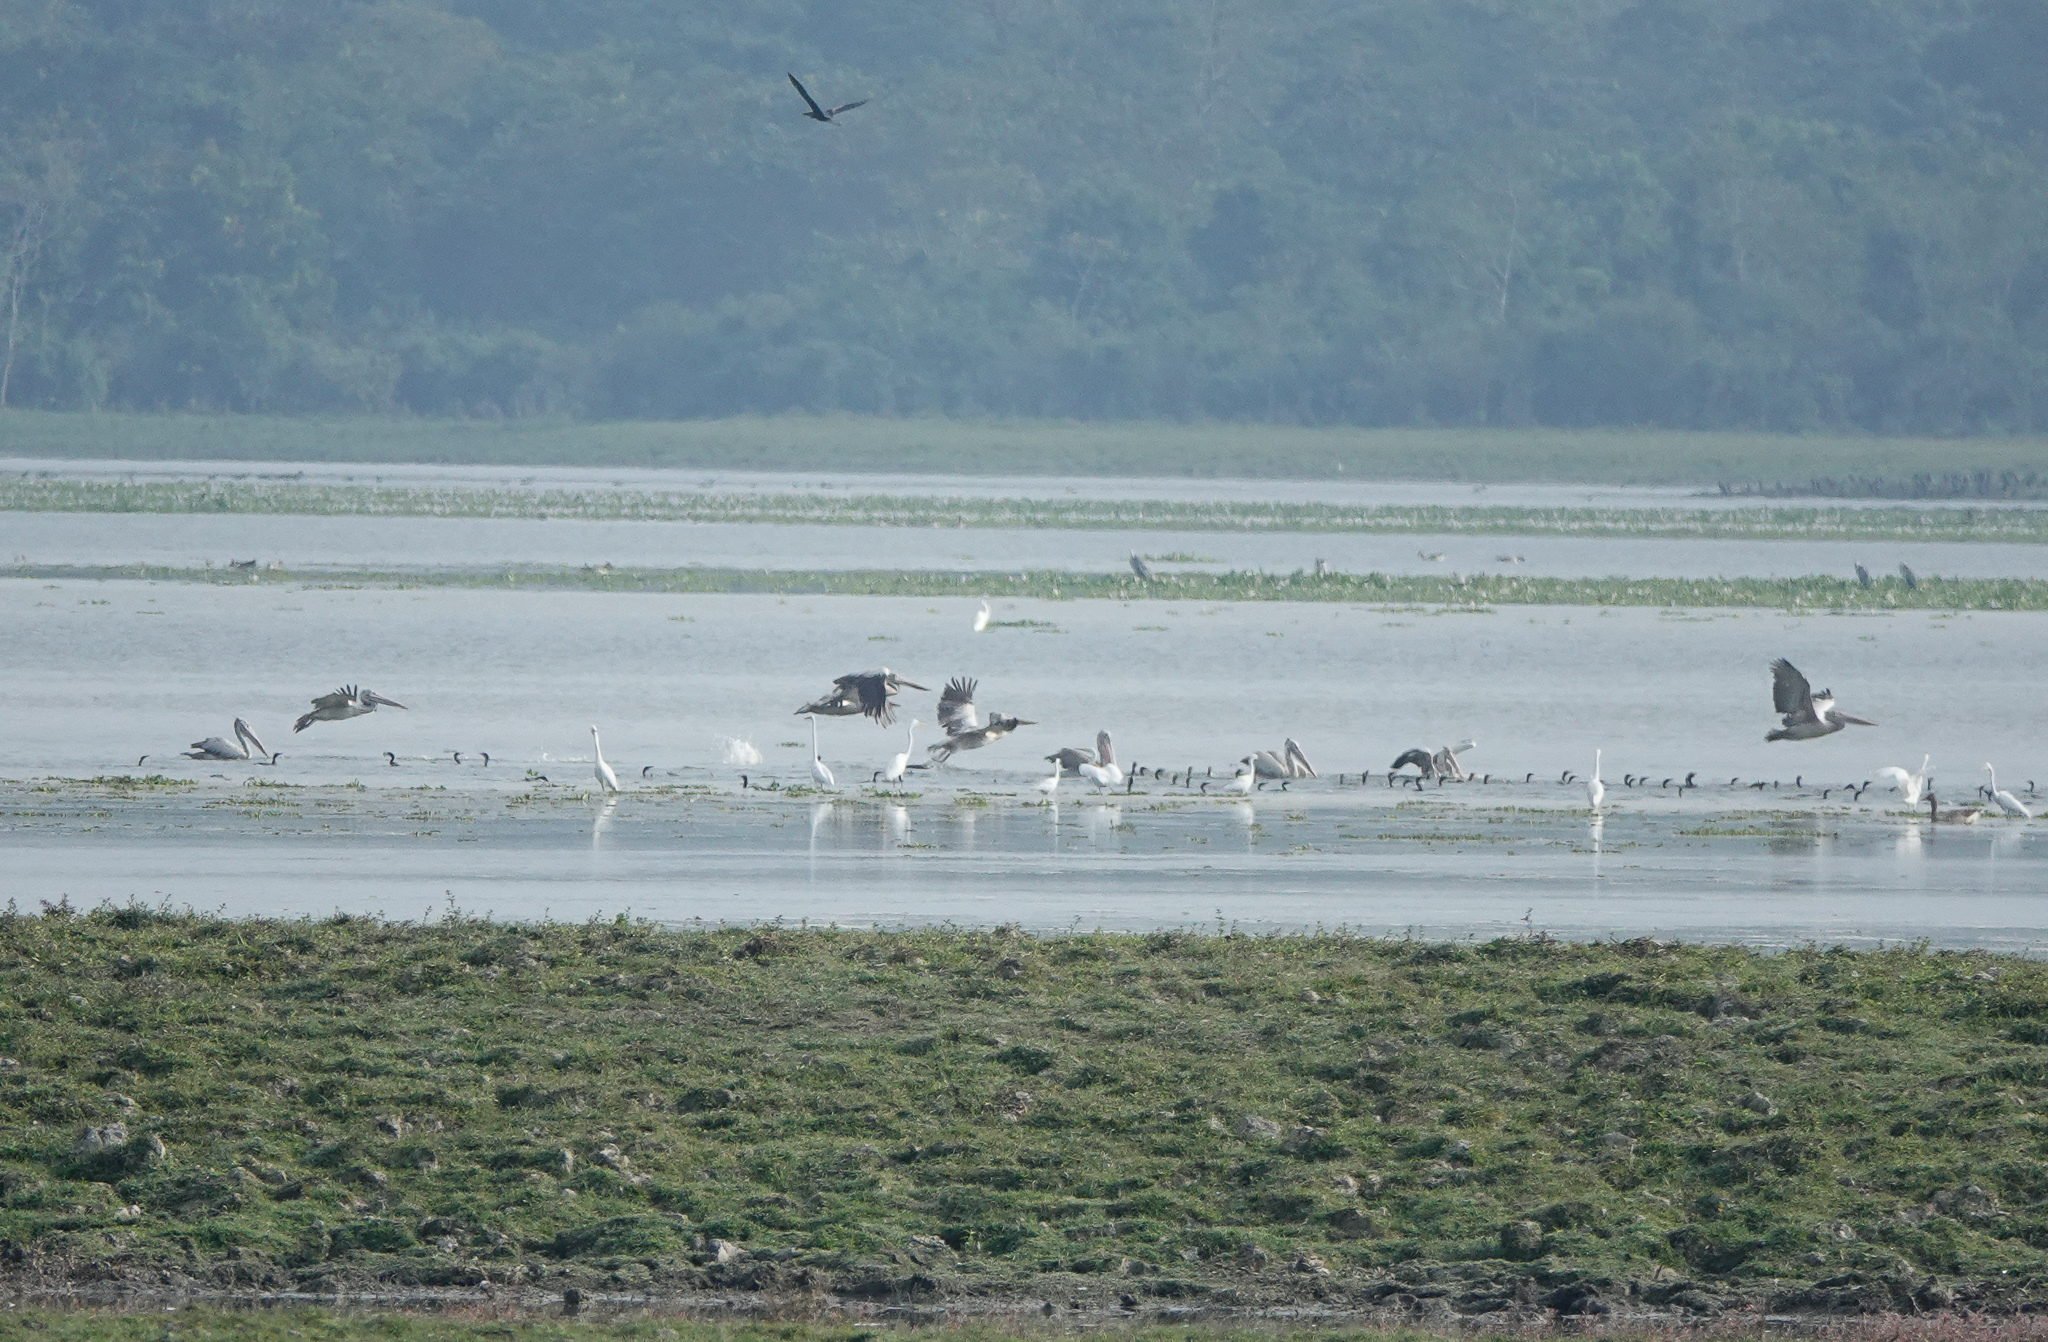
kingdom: Animalia
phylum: Chordata
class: Aves
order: Pelecaniformes
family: Pelecanidae
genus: Pelecanus
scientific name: Pelecanus philippensis
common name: Spot-billed pelican
